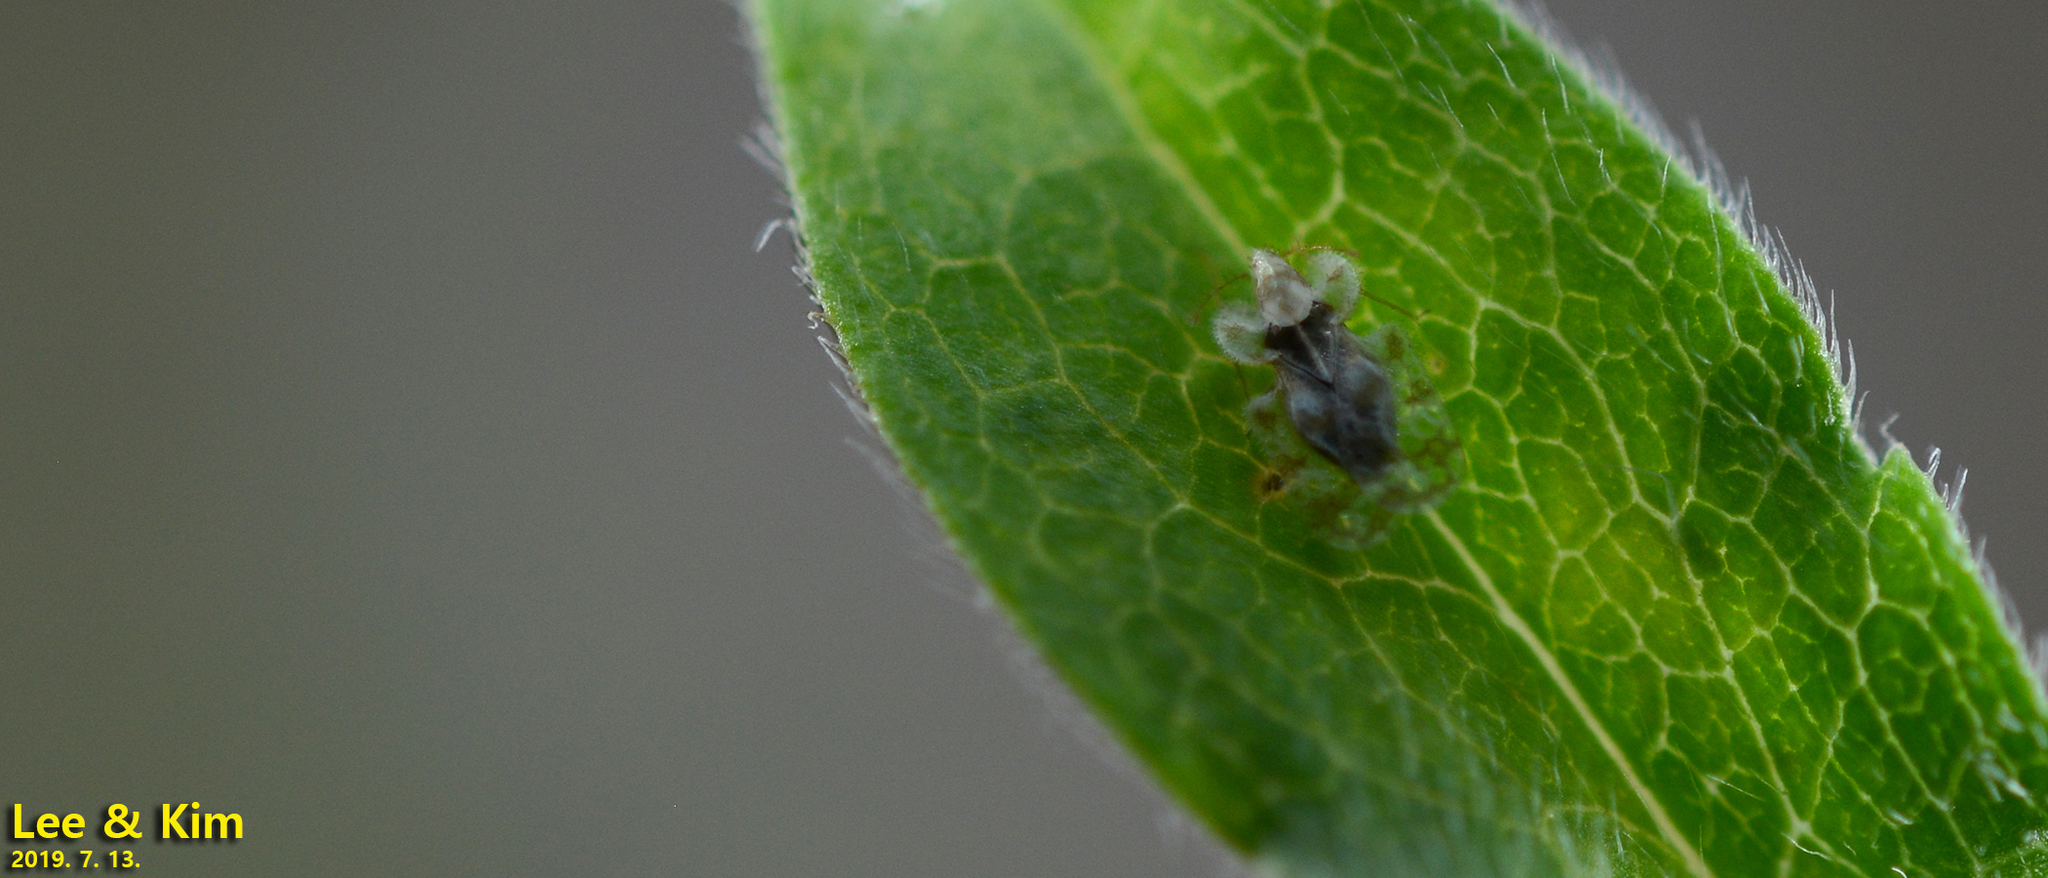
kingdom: Animalia
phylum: Arthropoda
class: Insecta
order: Hemiptera
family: Tingidae
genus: Corythucha
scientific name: Corythucha marmorata
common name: Chrysanthemum lace bug
